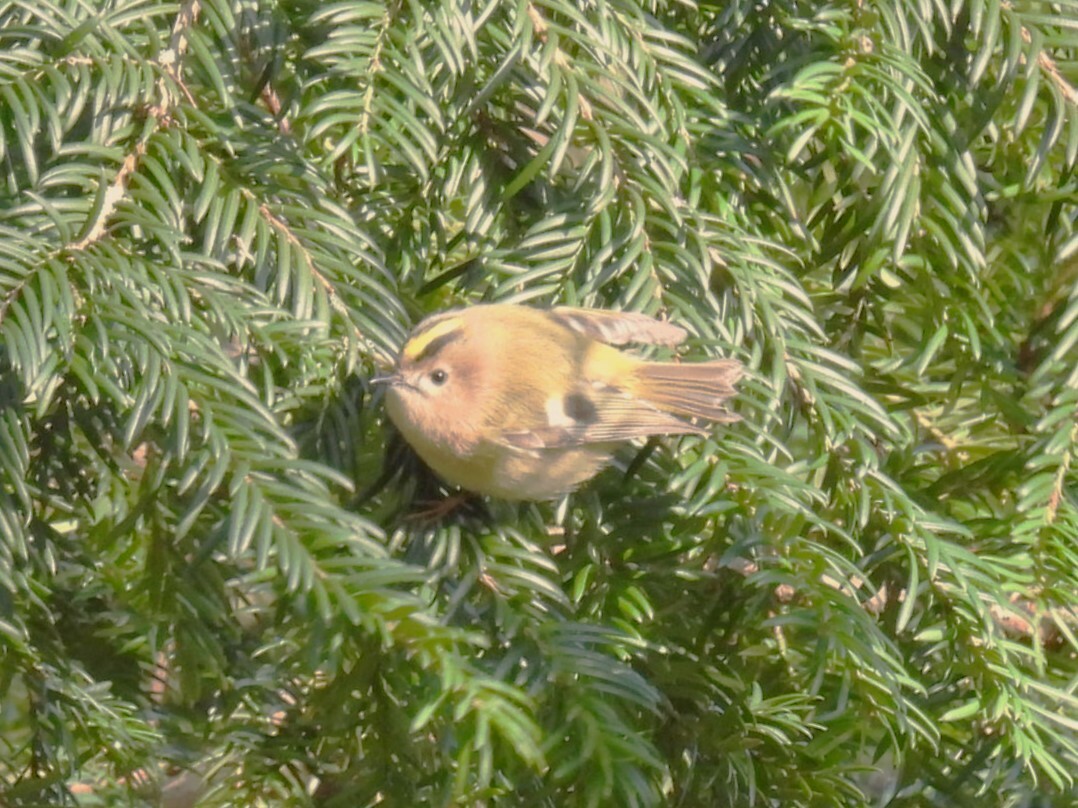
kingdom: Animalia
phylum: Chordata
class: Aves
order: Passeriformes
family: Regulidae
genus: Regulus
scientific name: Regulus regulus
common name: Goldcrest
